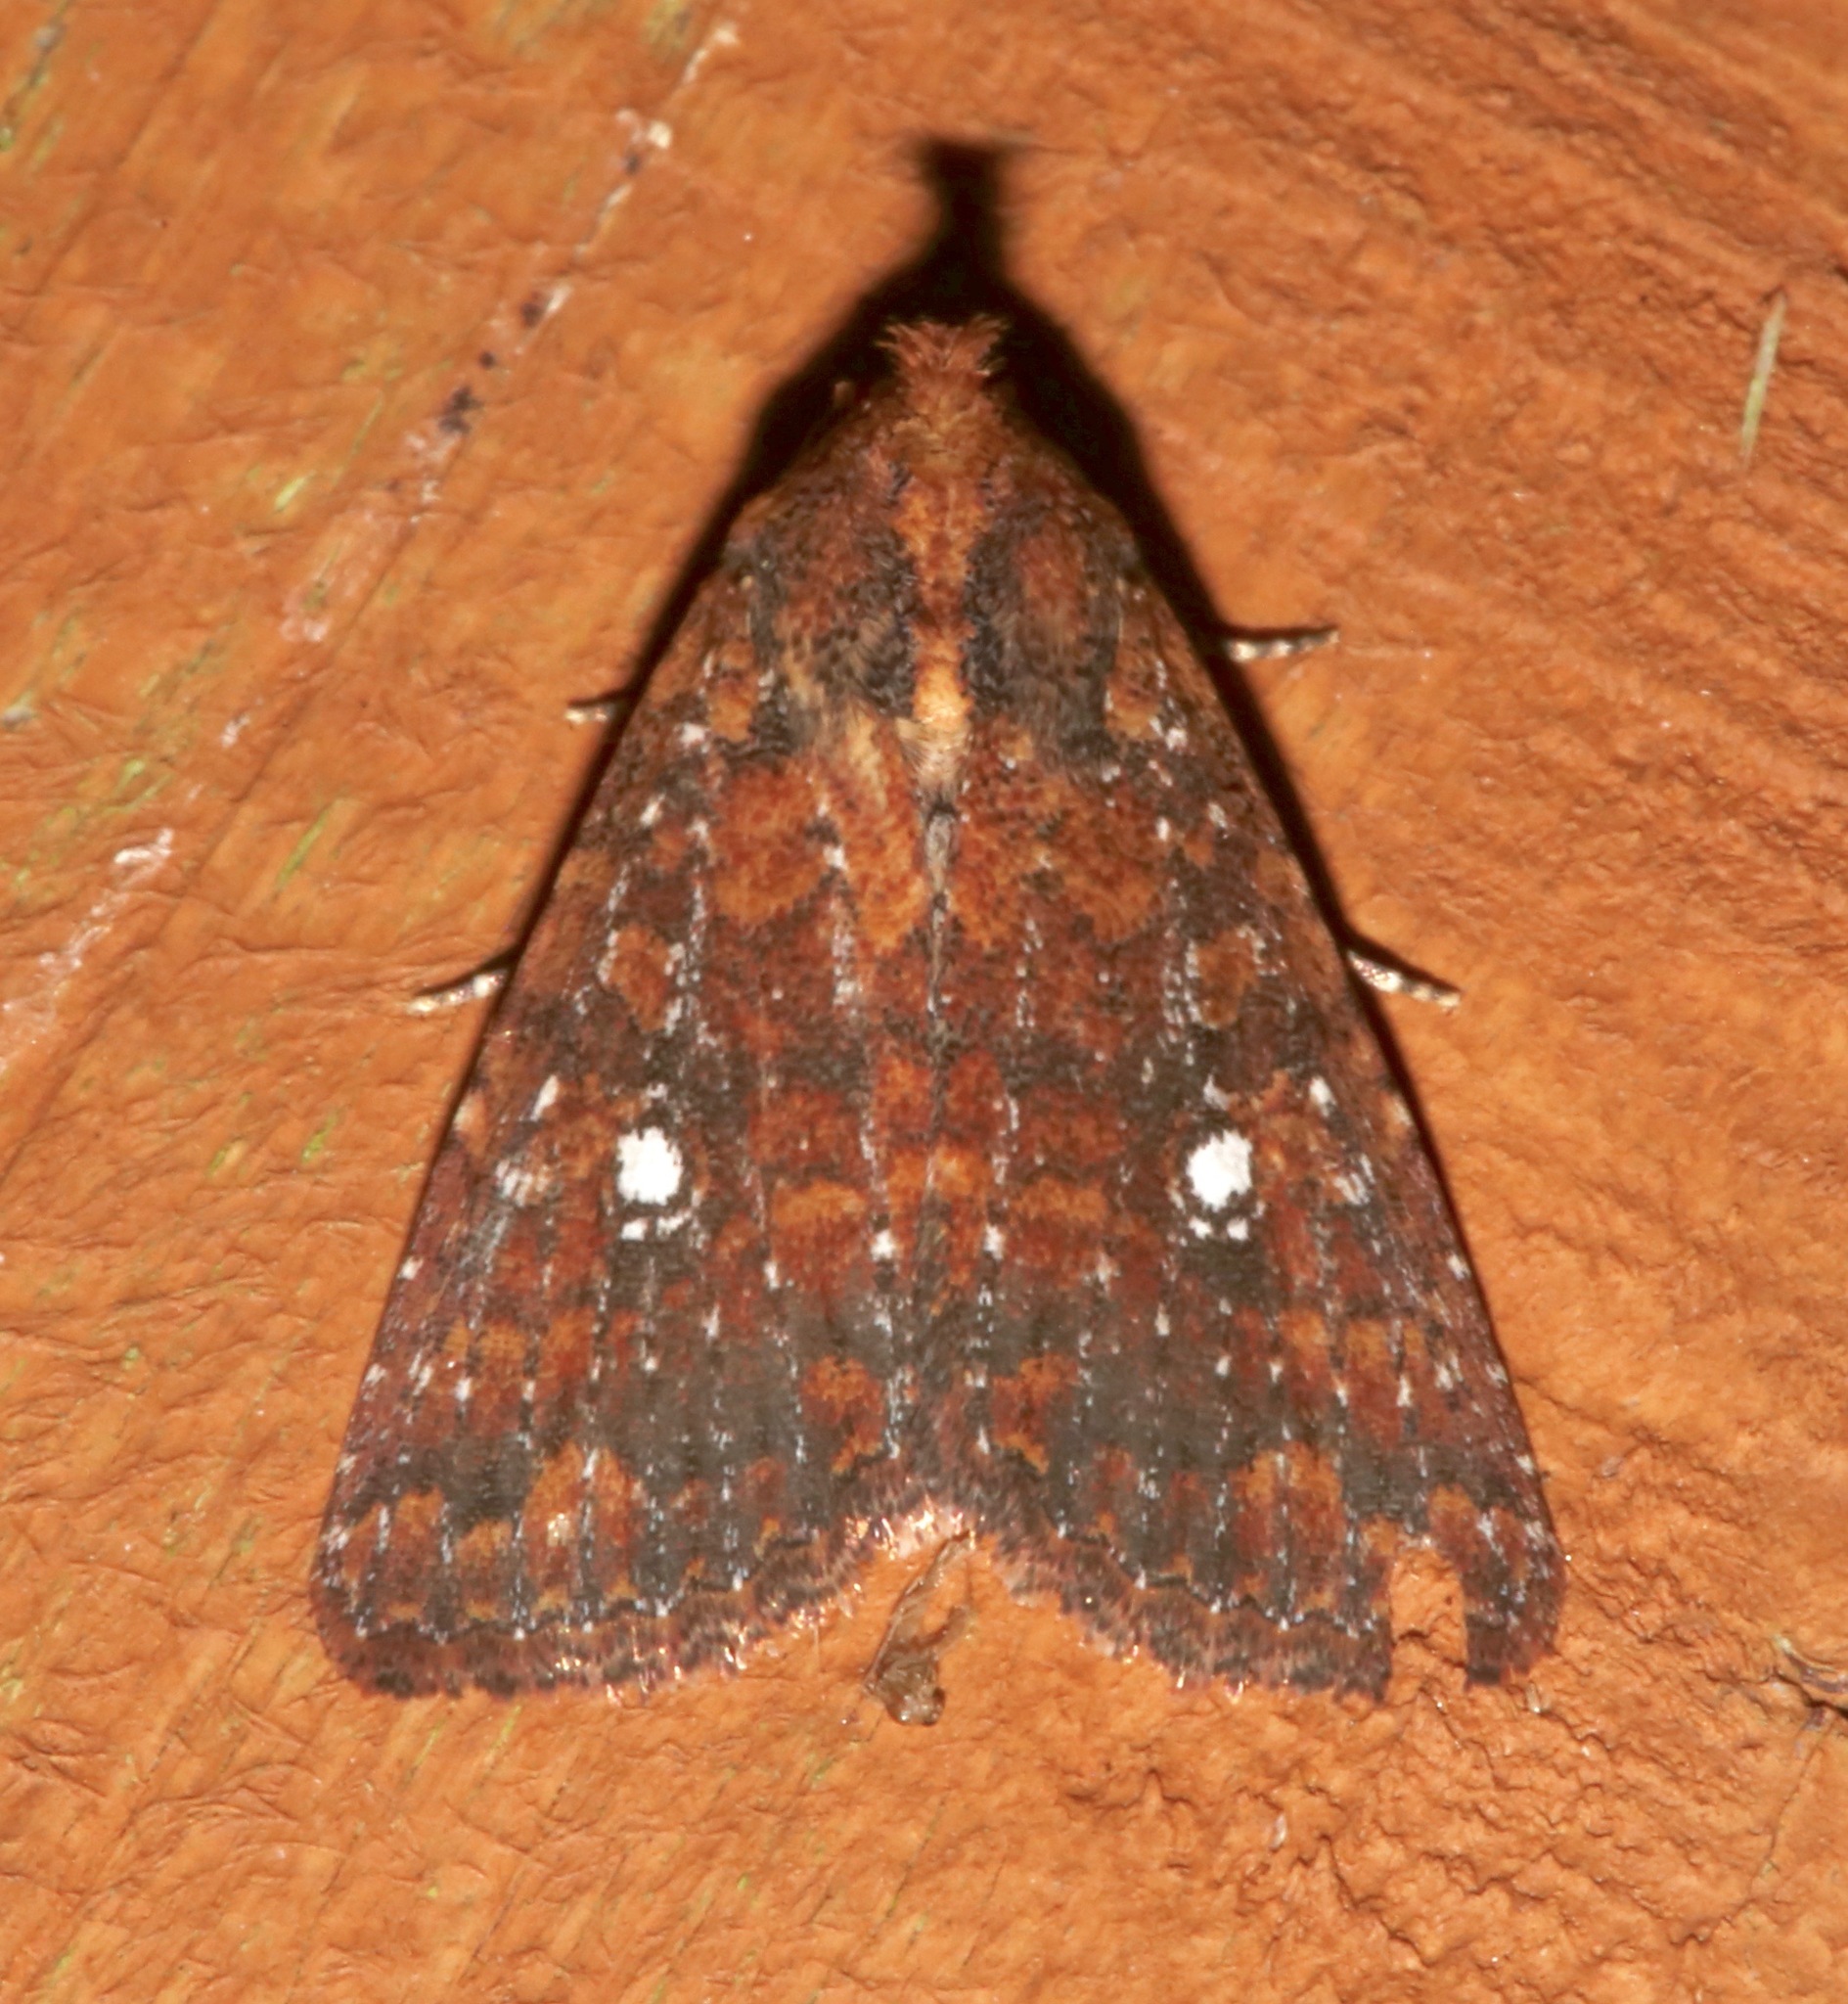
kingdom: Animalia
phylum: Arthropoda
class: Insecta
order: Lepidoptera
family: Noctuidae
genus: Condica
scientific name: Condica mobilis
